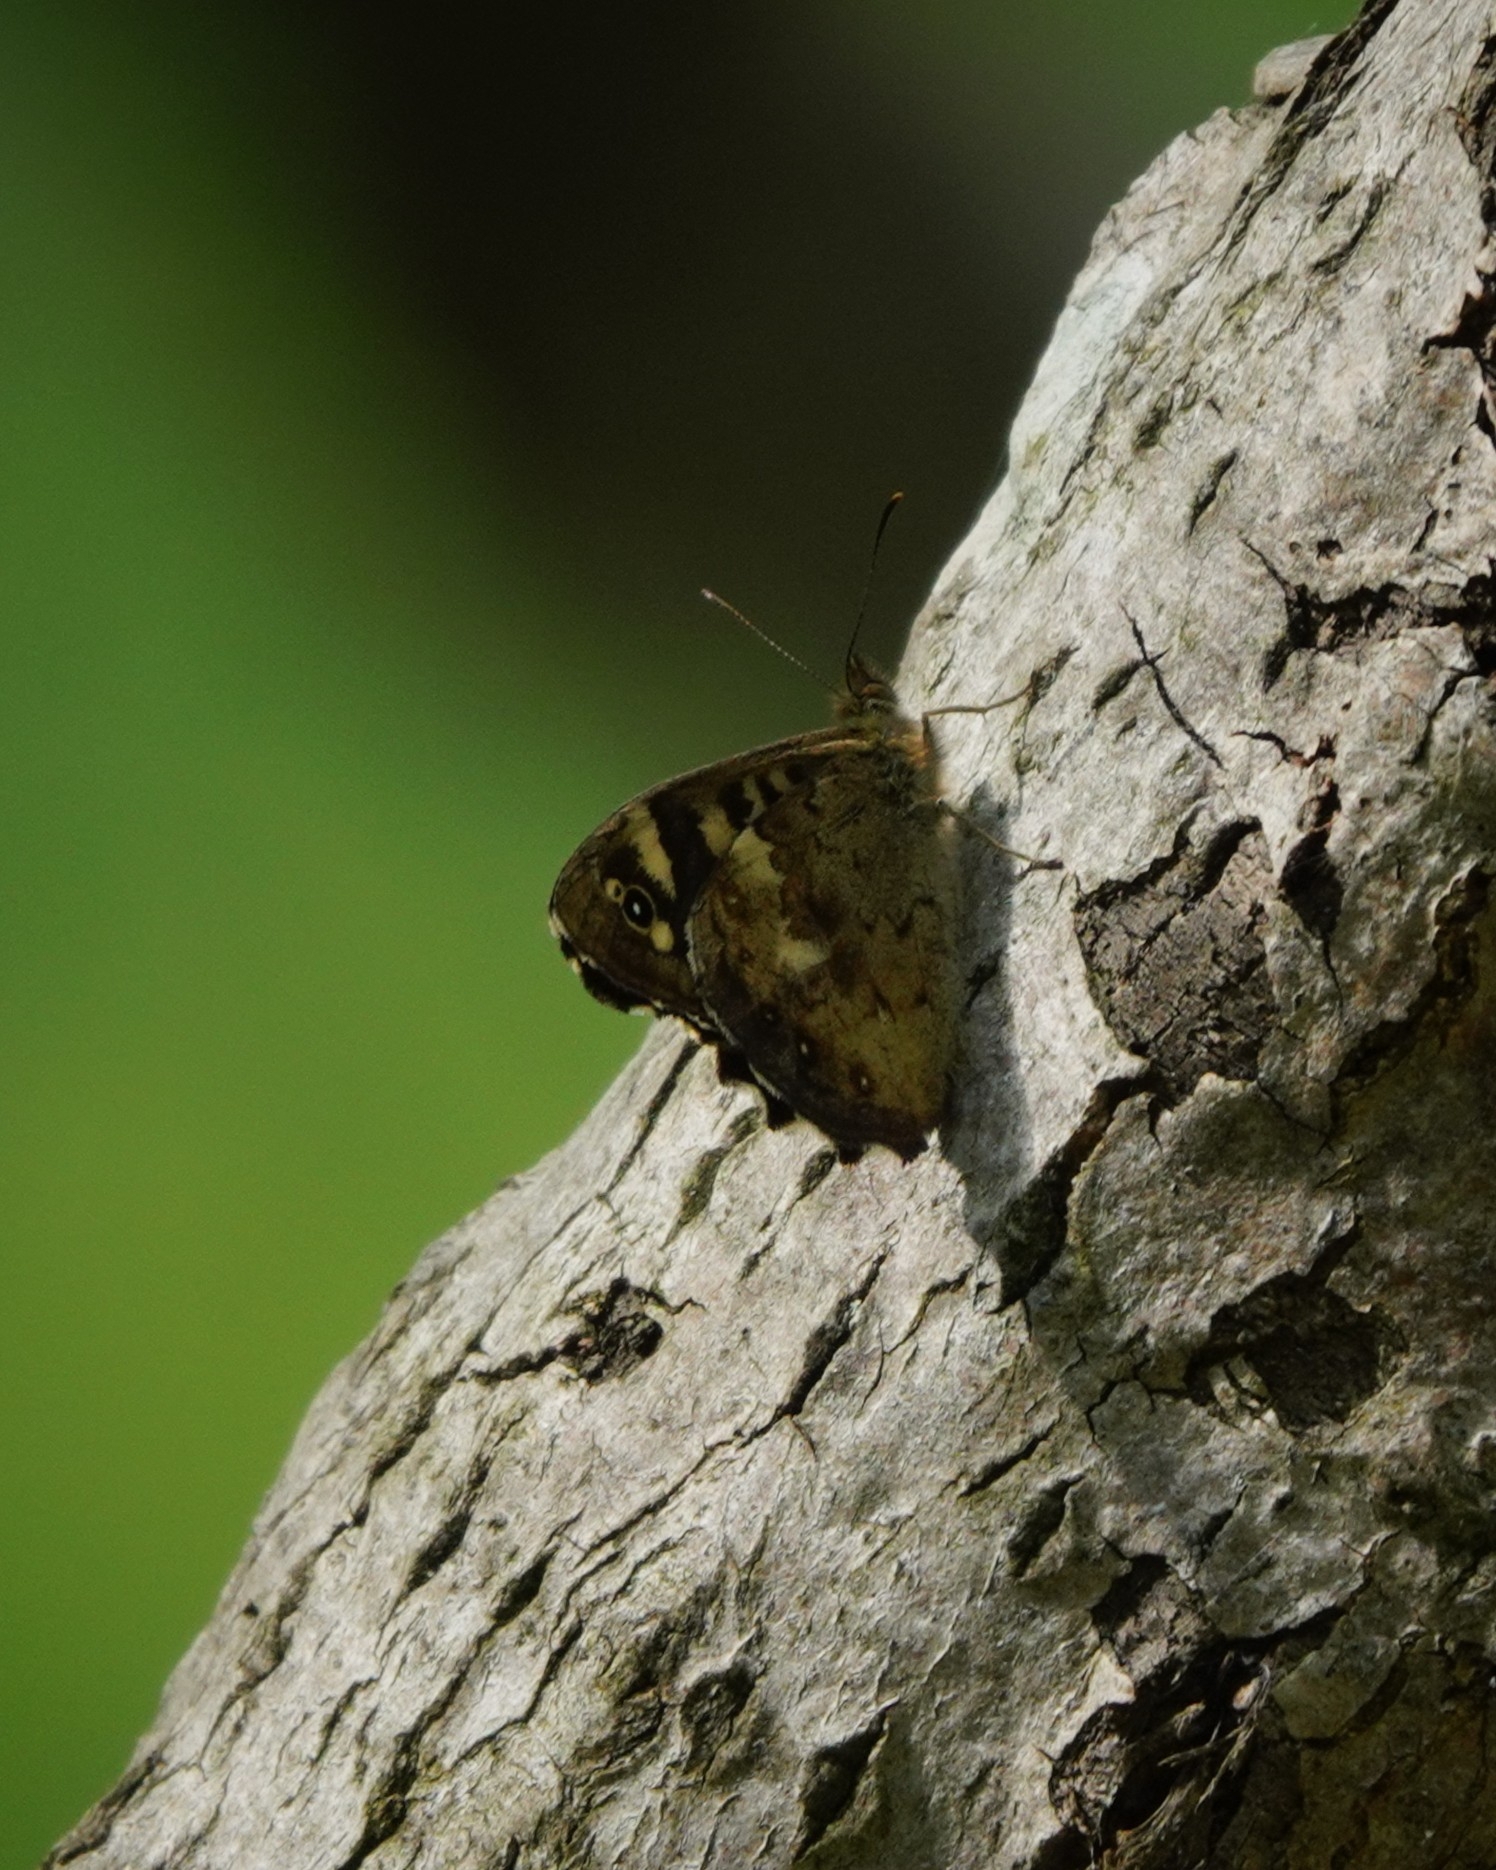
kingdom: Animalia
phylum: Arthropoda
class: Insecta
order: Lepidoptera
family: Nymphalidae
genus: Pararge
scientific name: Pararge aegeria
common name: Speckled wood
